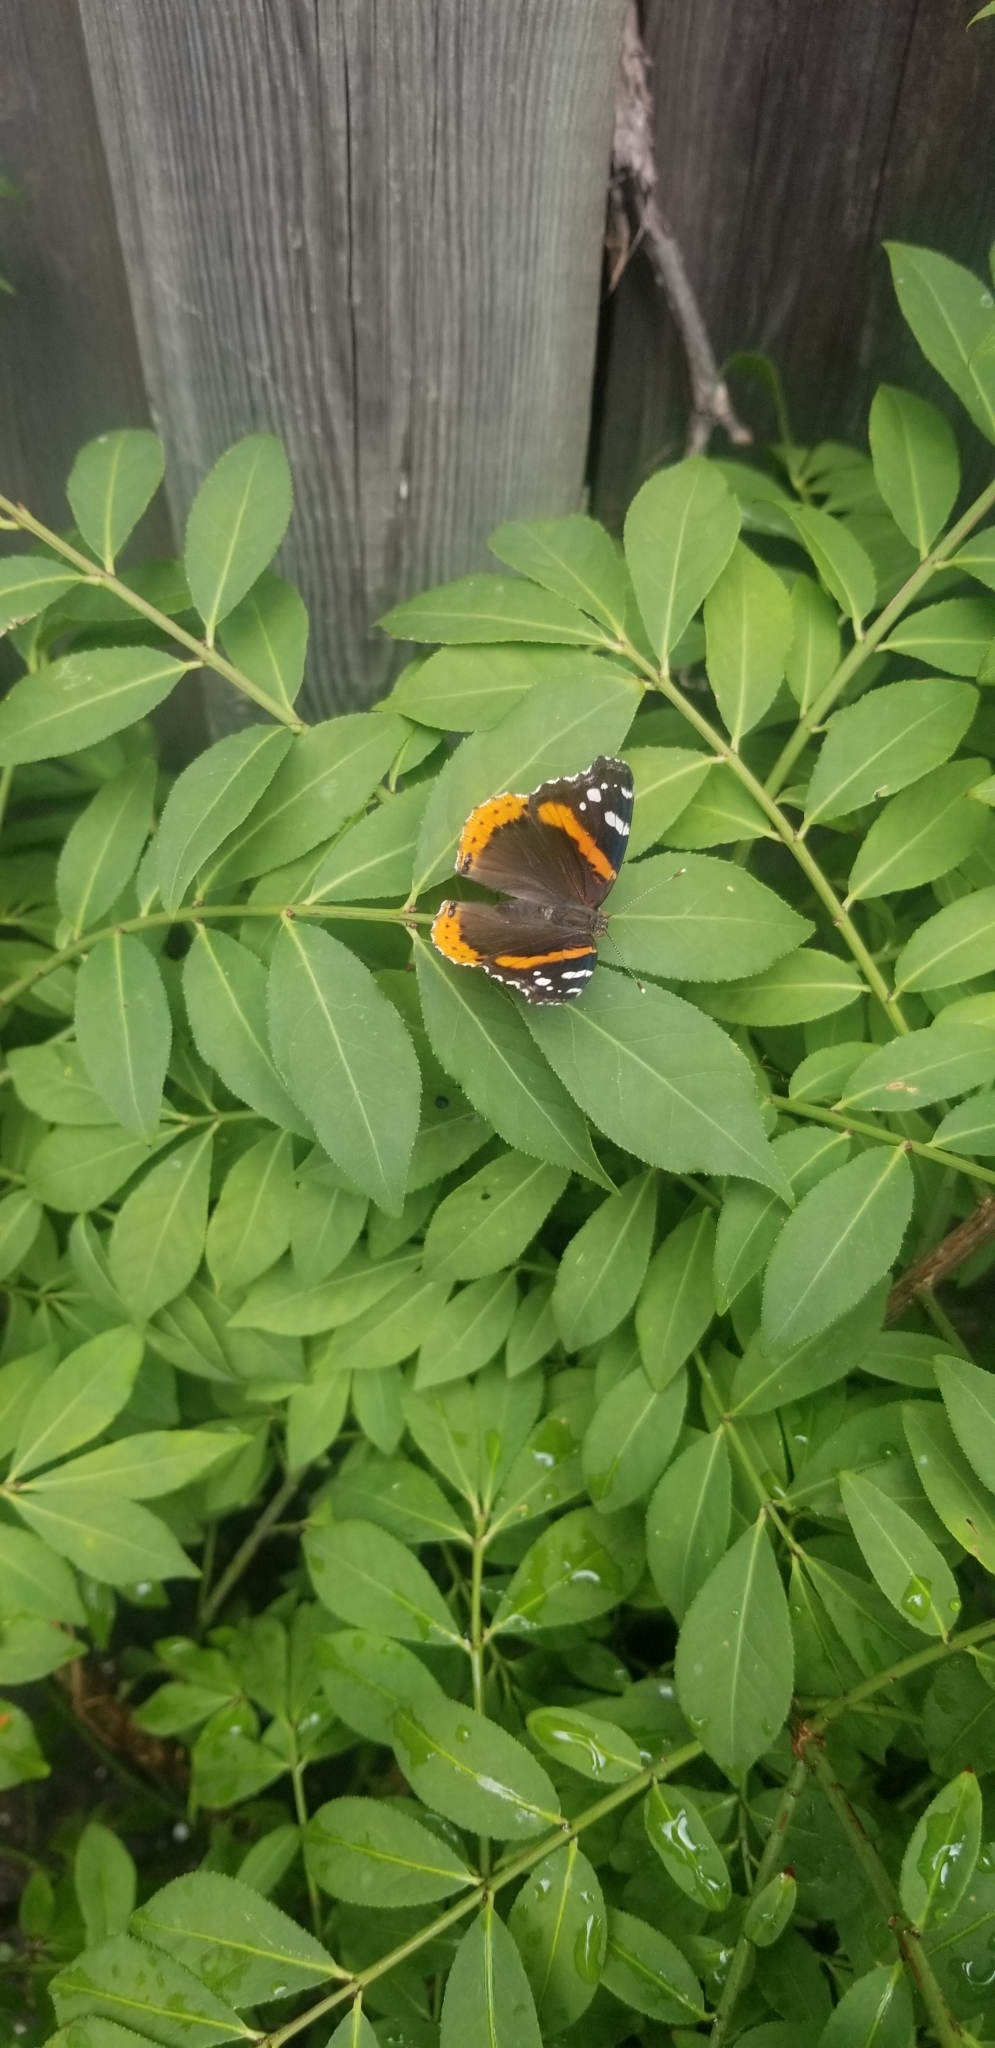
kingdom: Animalia
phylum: Arthropoda
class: Insecta
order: Lepidoptera
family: Nymphalidae
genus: Vanessa
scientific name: Vanessa atalanta
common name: Red admiral
